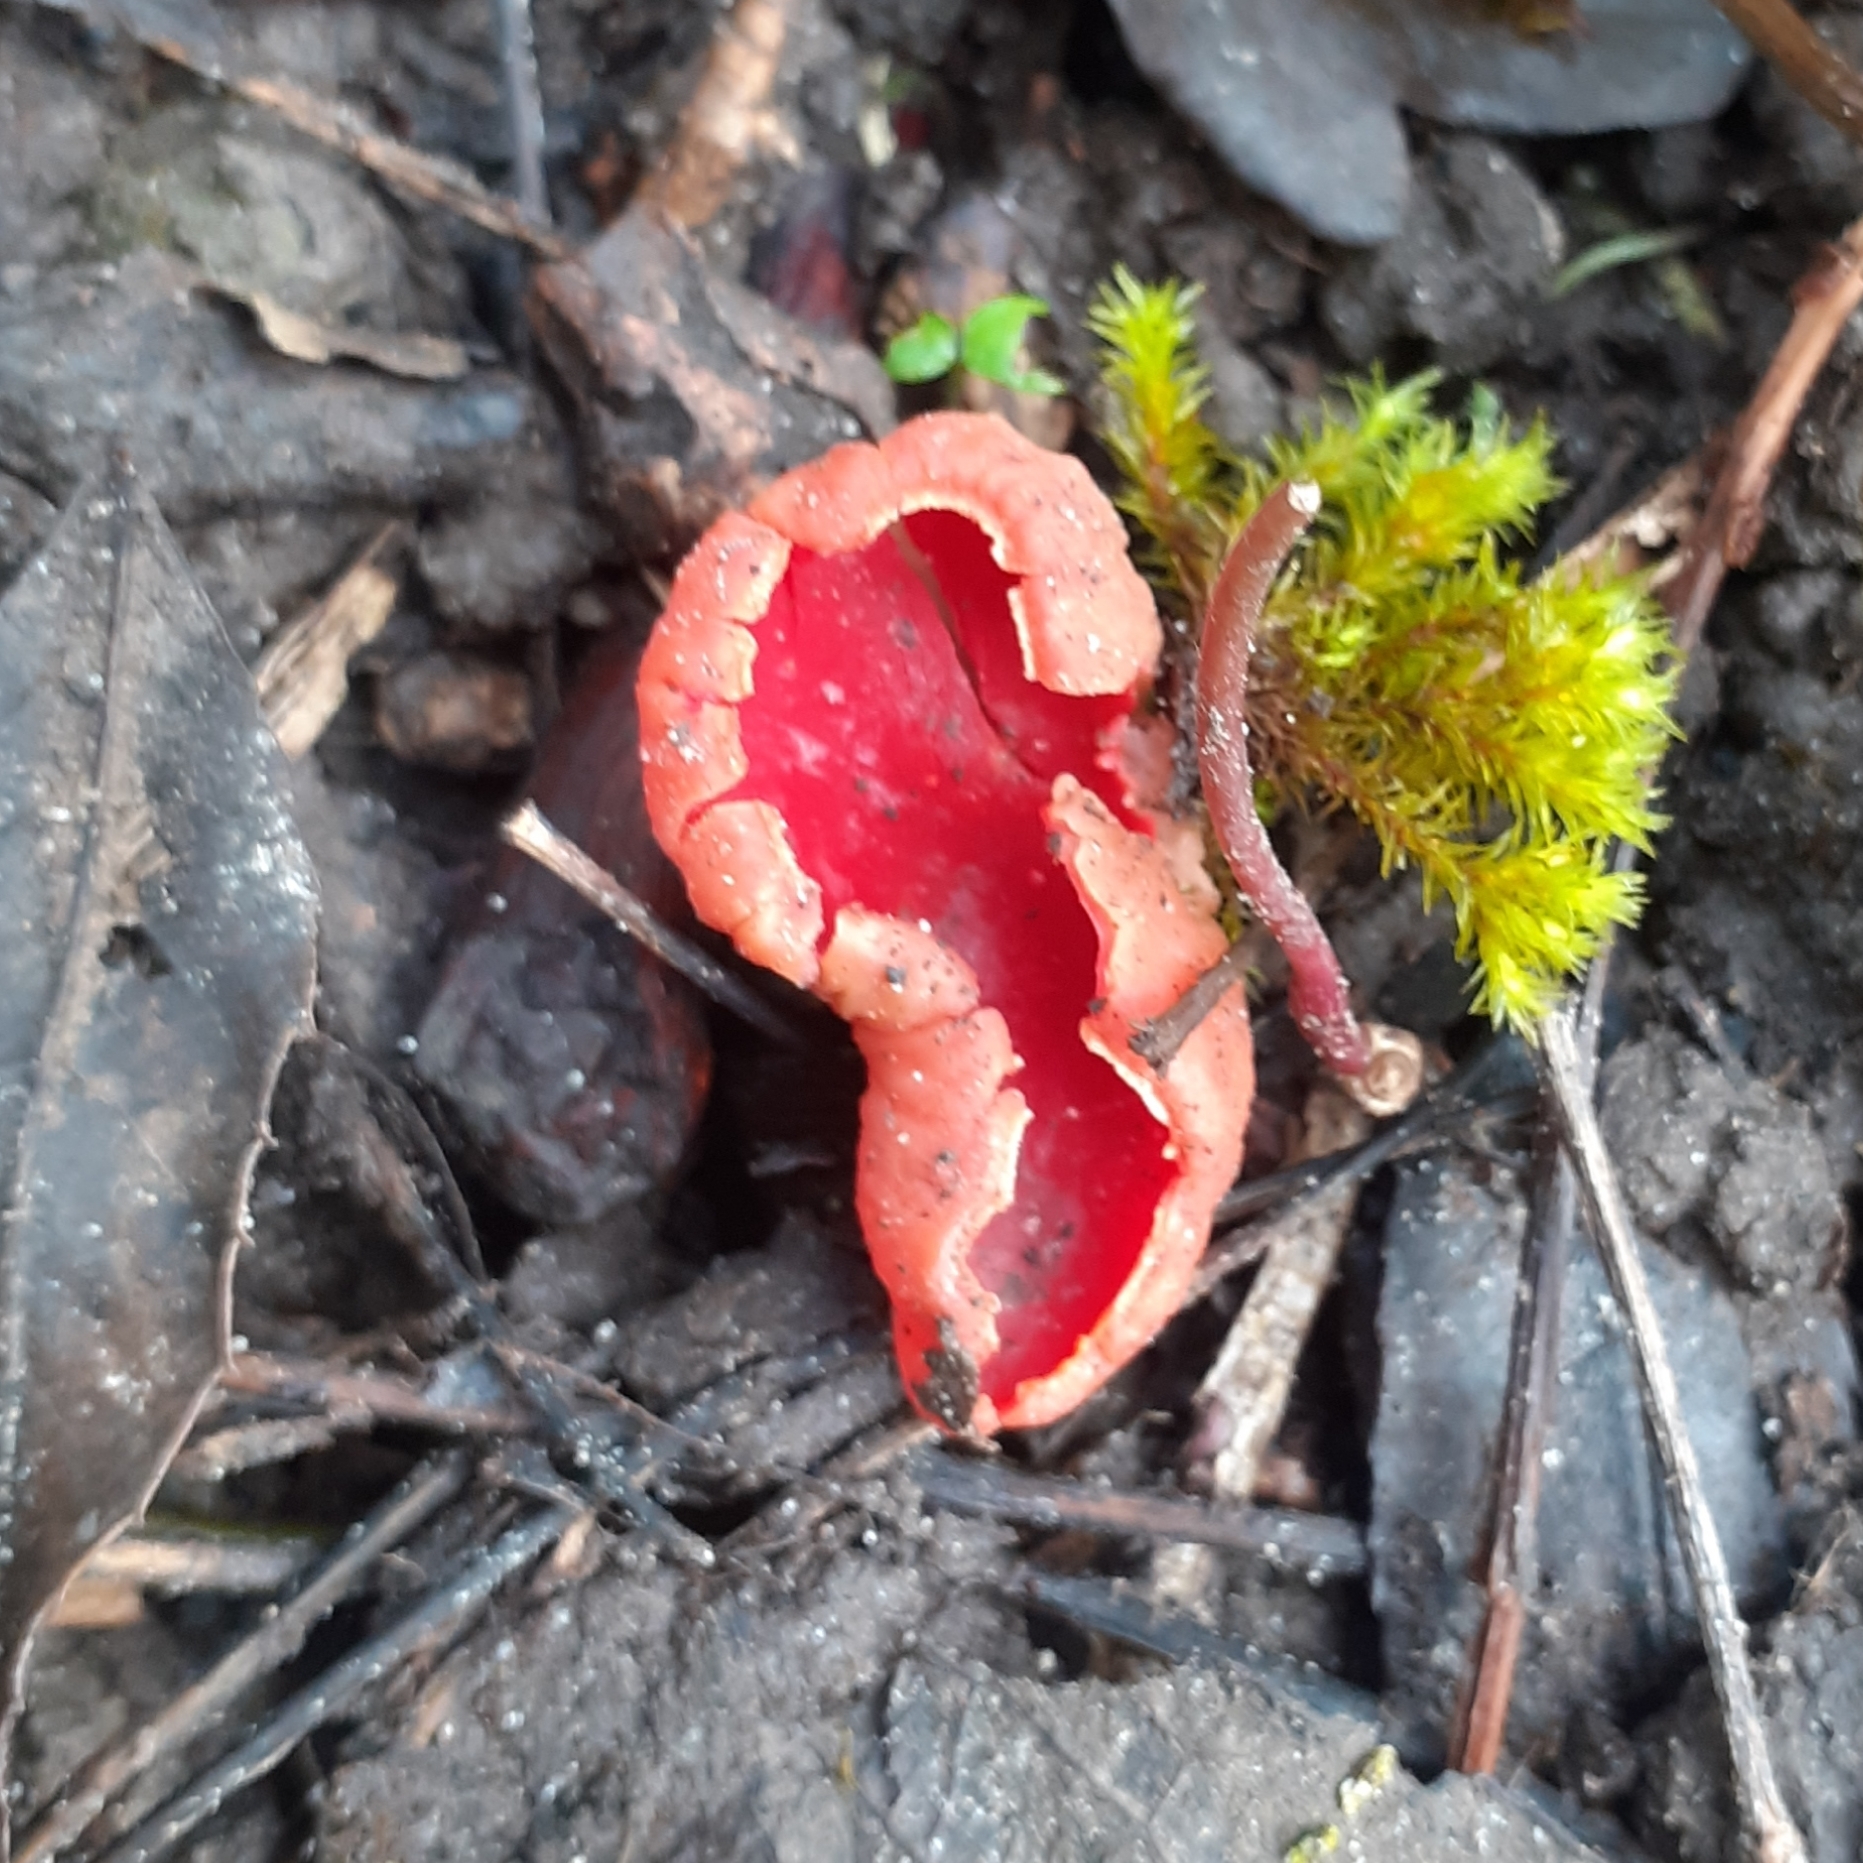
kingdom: Fungi
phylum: Ascomycota
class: Pezizomycetes
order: Pezizales
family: Sarcoscyphaceae
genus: Sarcoscypha
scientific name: Sarcoscypha
